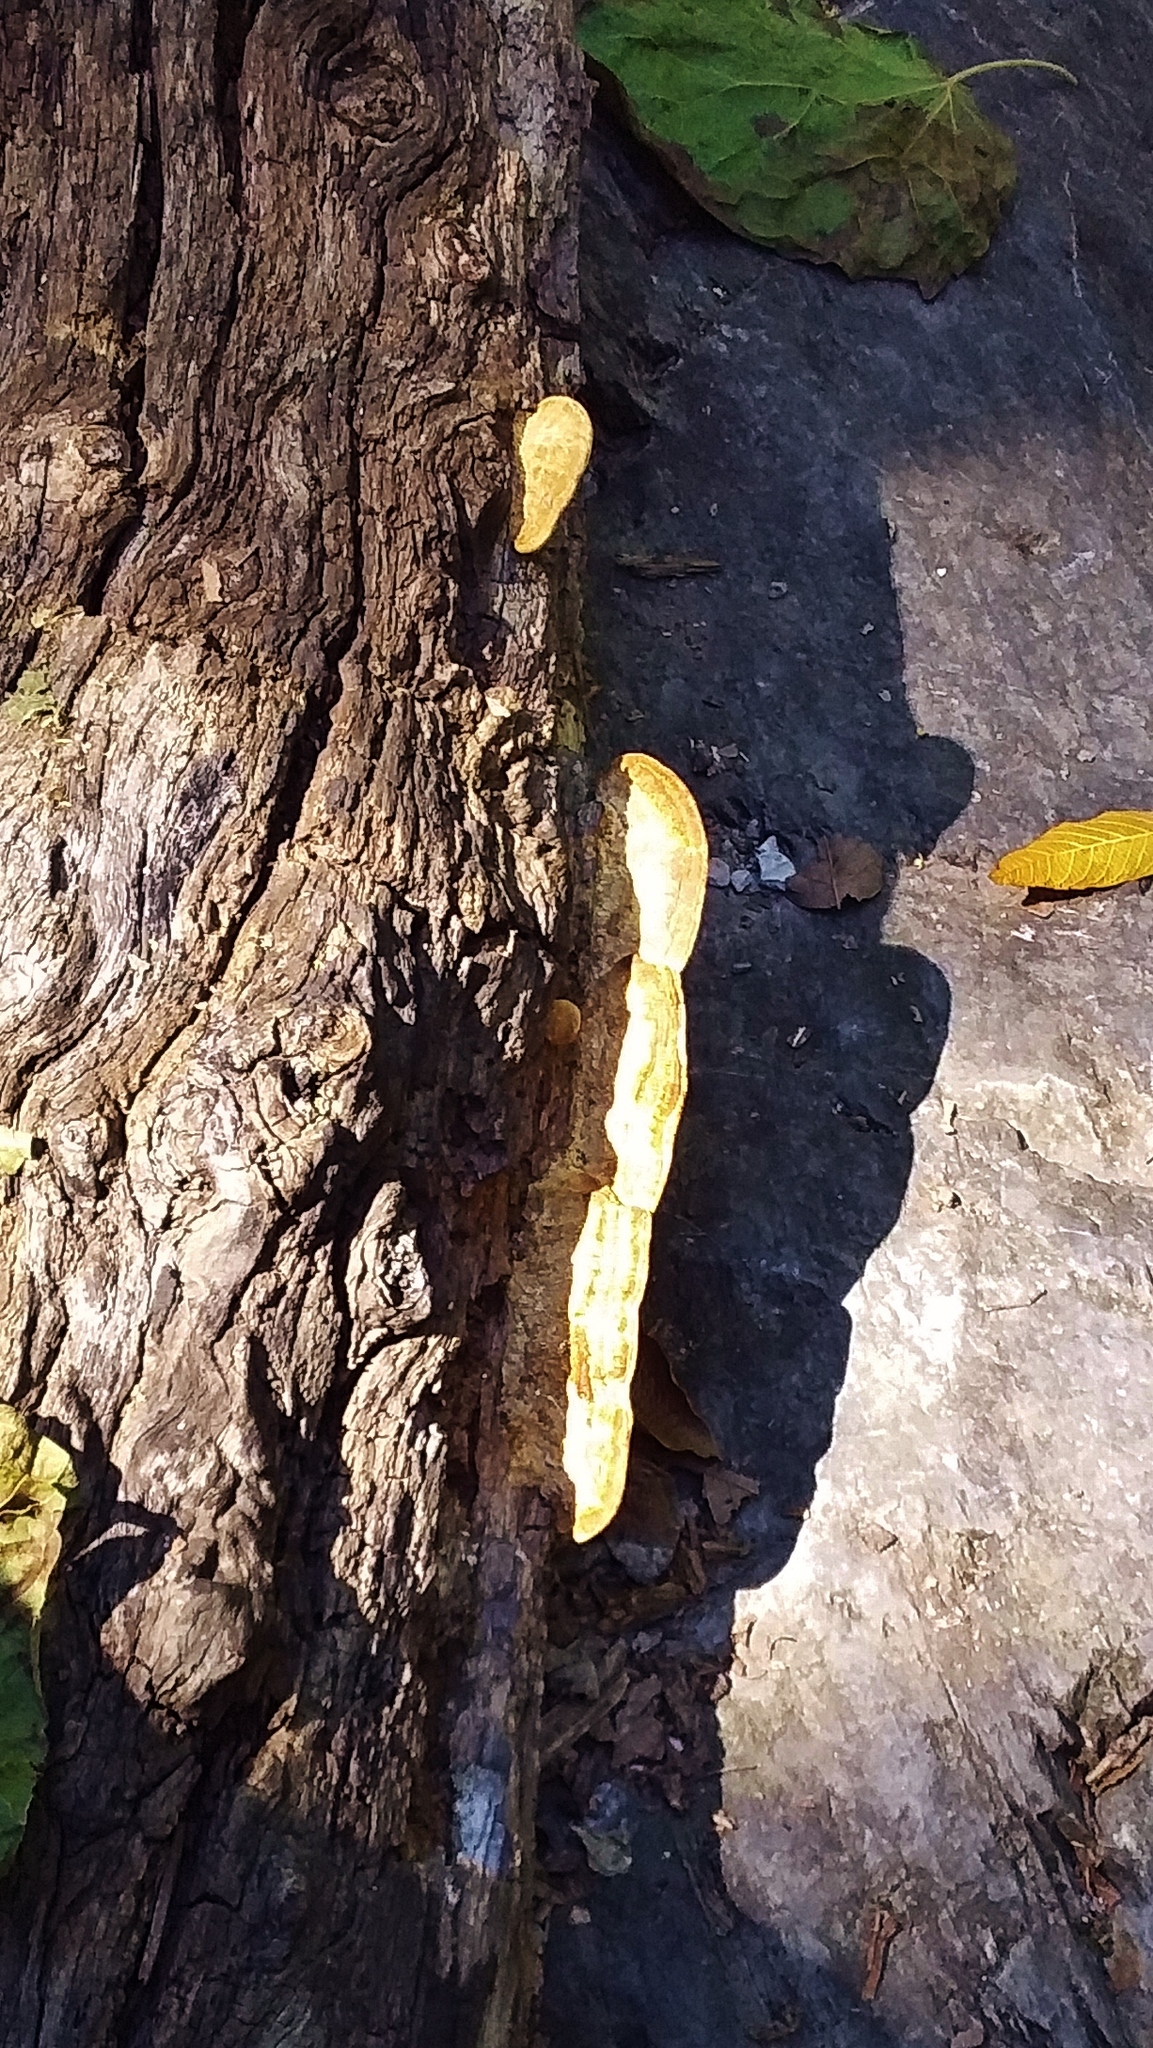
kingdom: Fungi
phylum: Basidiomycota
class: Agaricomycetes
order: Hymenochaetales
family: Hymenochaetaceae
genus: Phellinus
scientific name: Phellinus gilvus
